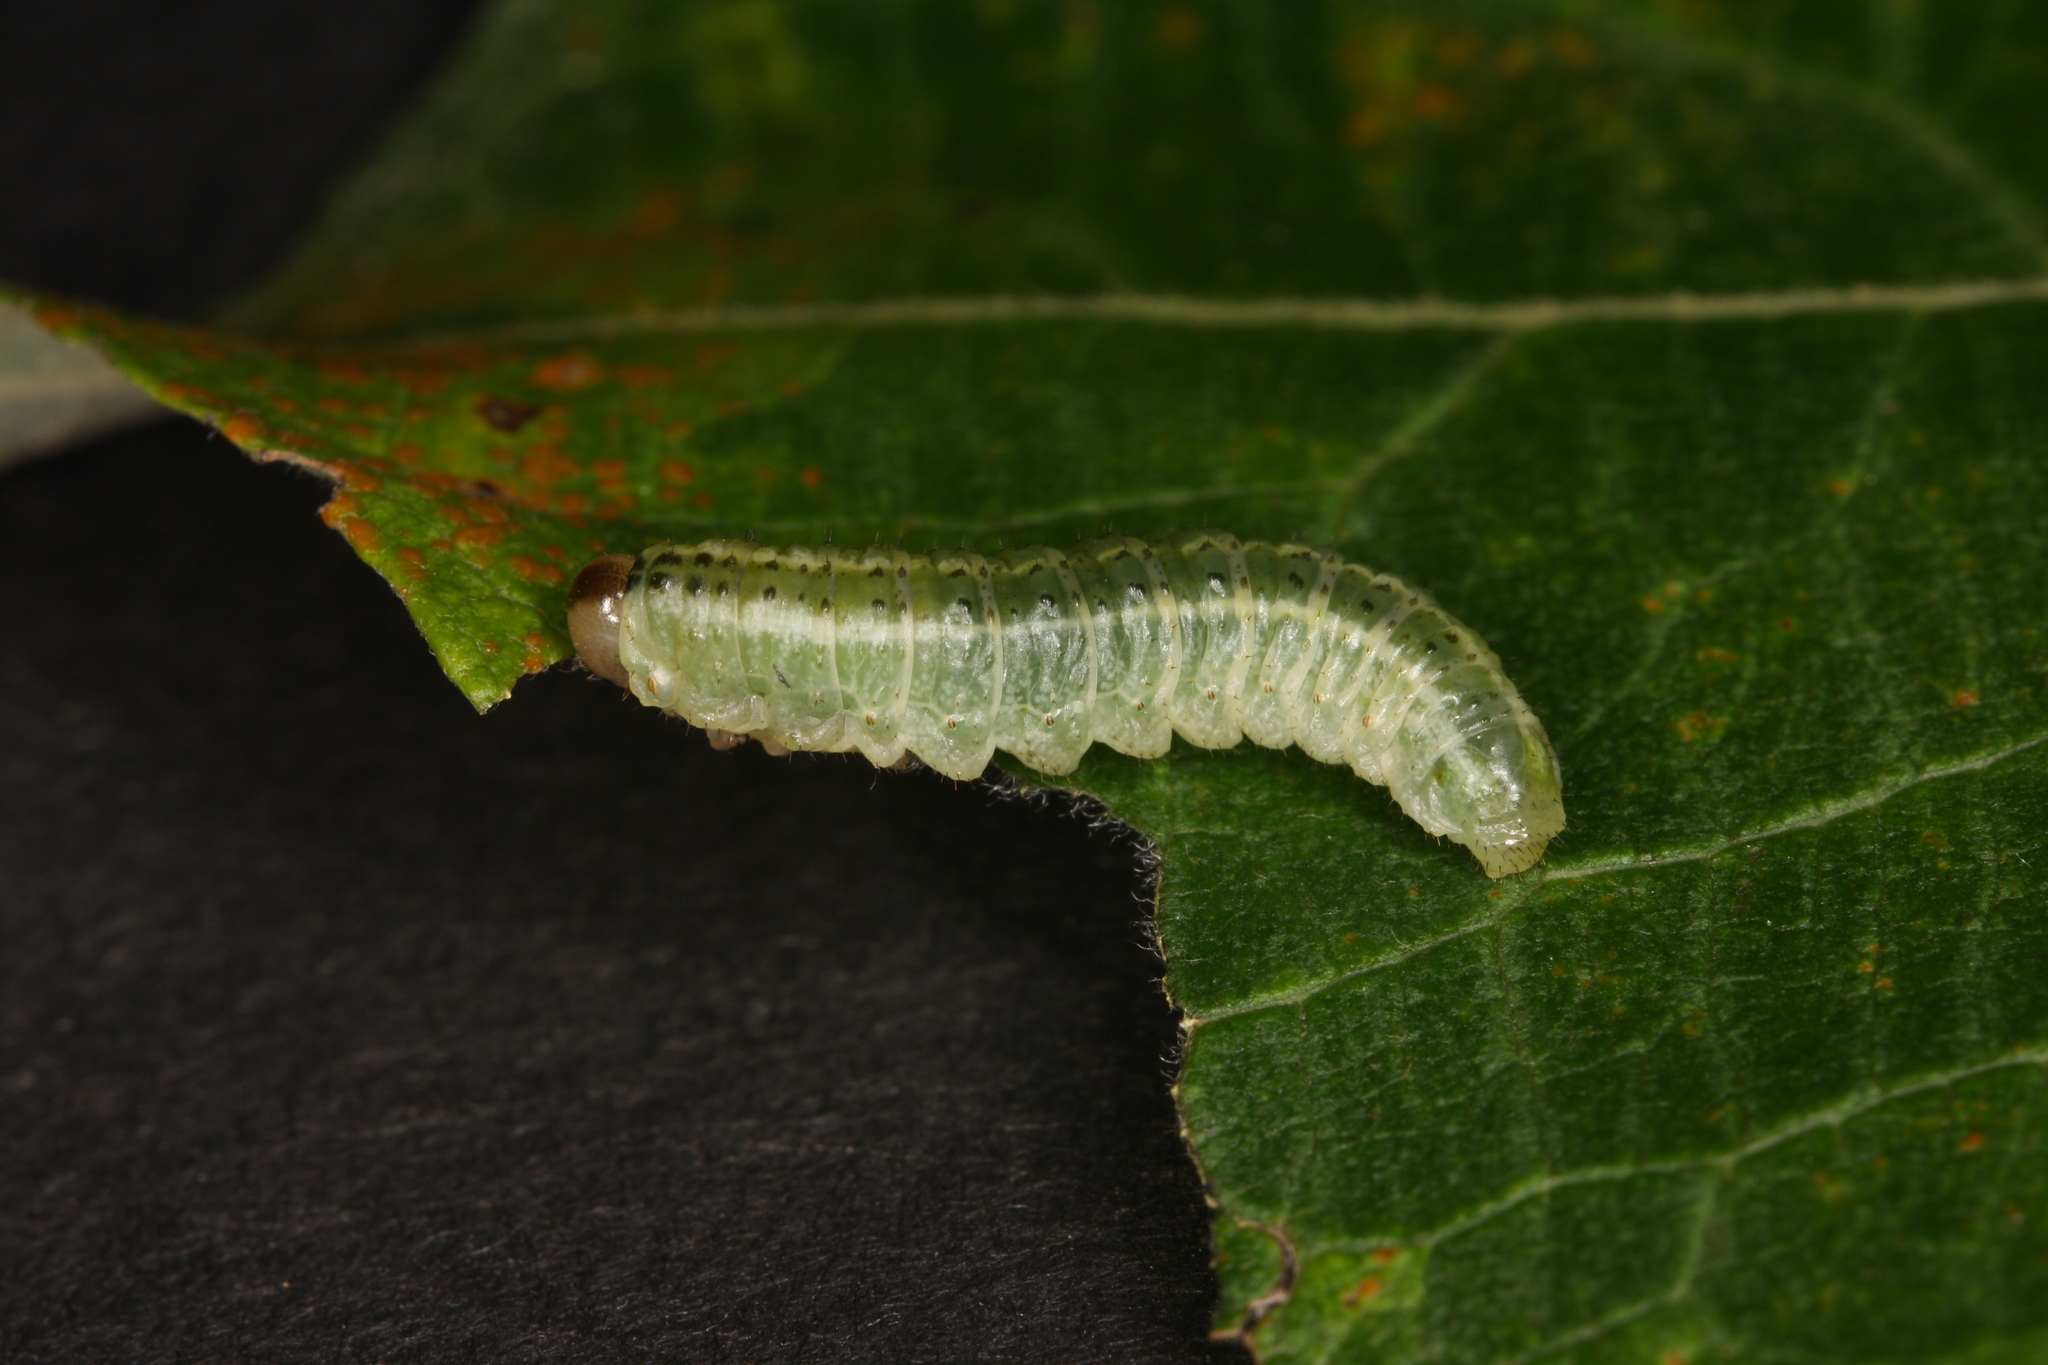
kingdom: Animalia
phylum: Arthropoda
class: Insecta
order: Hymenoptera
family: Argidae
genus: Arge
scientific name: Arge ustulata
